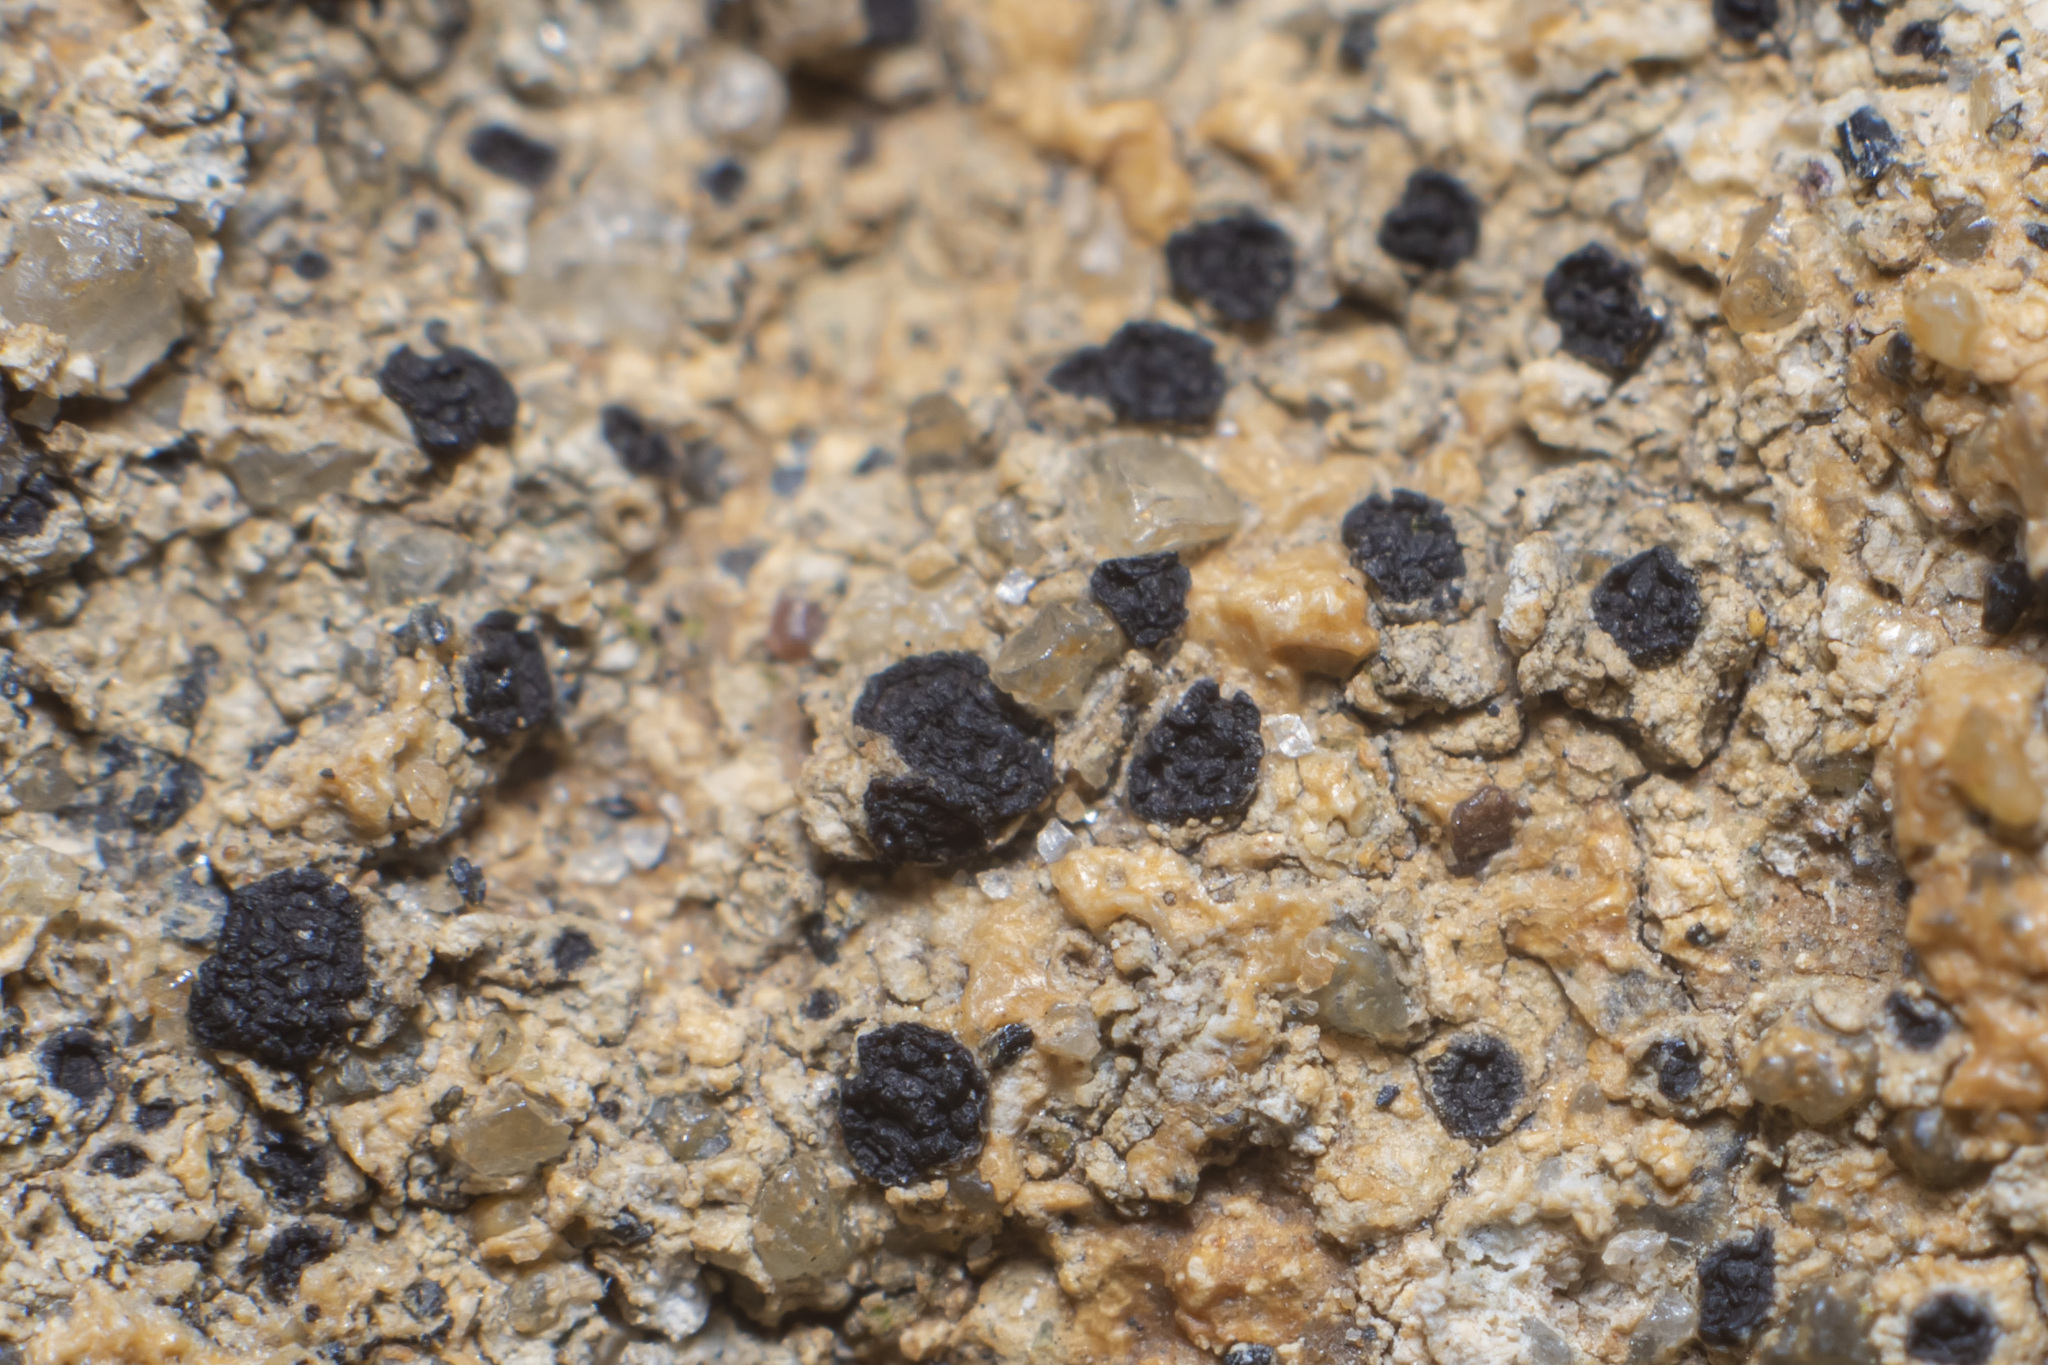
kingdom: Fungi
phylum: Ascomycota
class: Lecanoromycetes
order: Acarosporales
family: Acarosporaceae
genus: Acarospora
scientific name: Acarospora privigna
